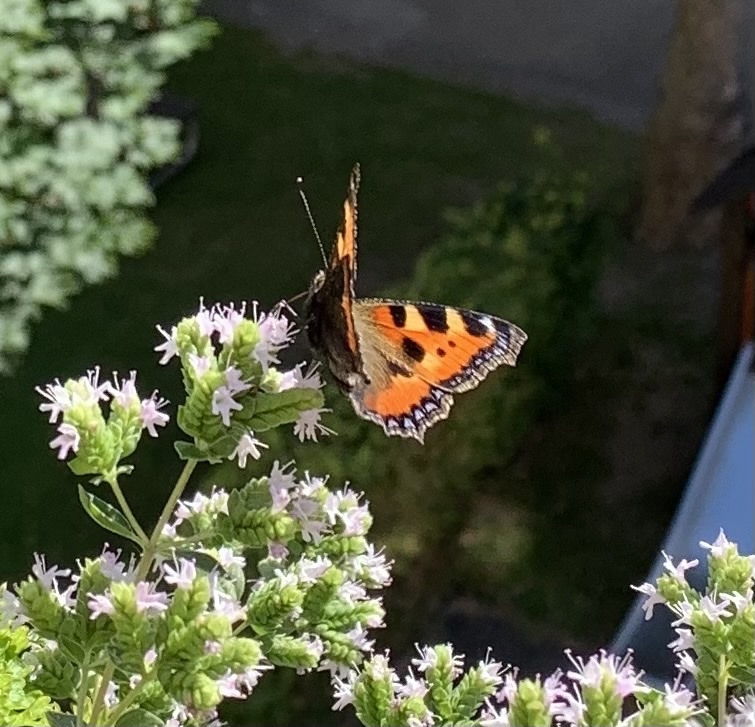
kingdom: Animalia
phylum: Arthropoda
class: Insecta
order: Lepidoptera
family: Nymphalidae
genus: Aglais
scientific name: Aglais urticae
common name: Small tortoiseshell
